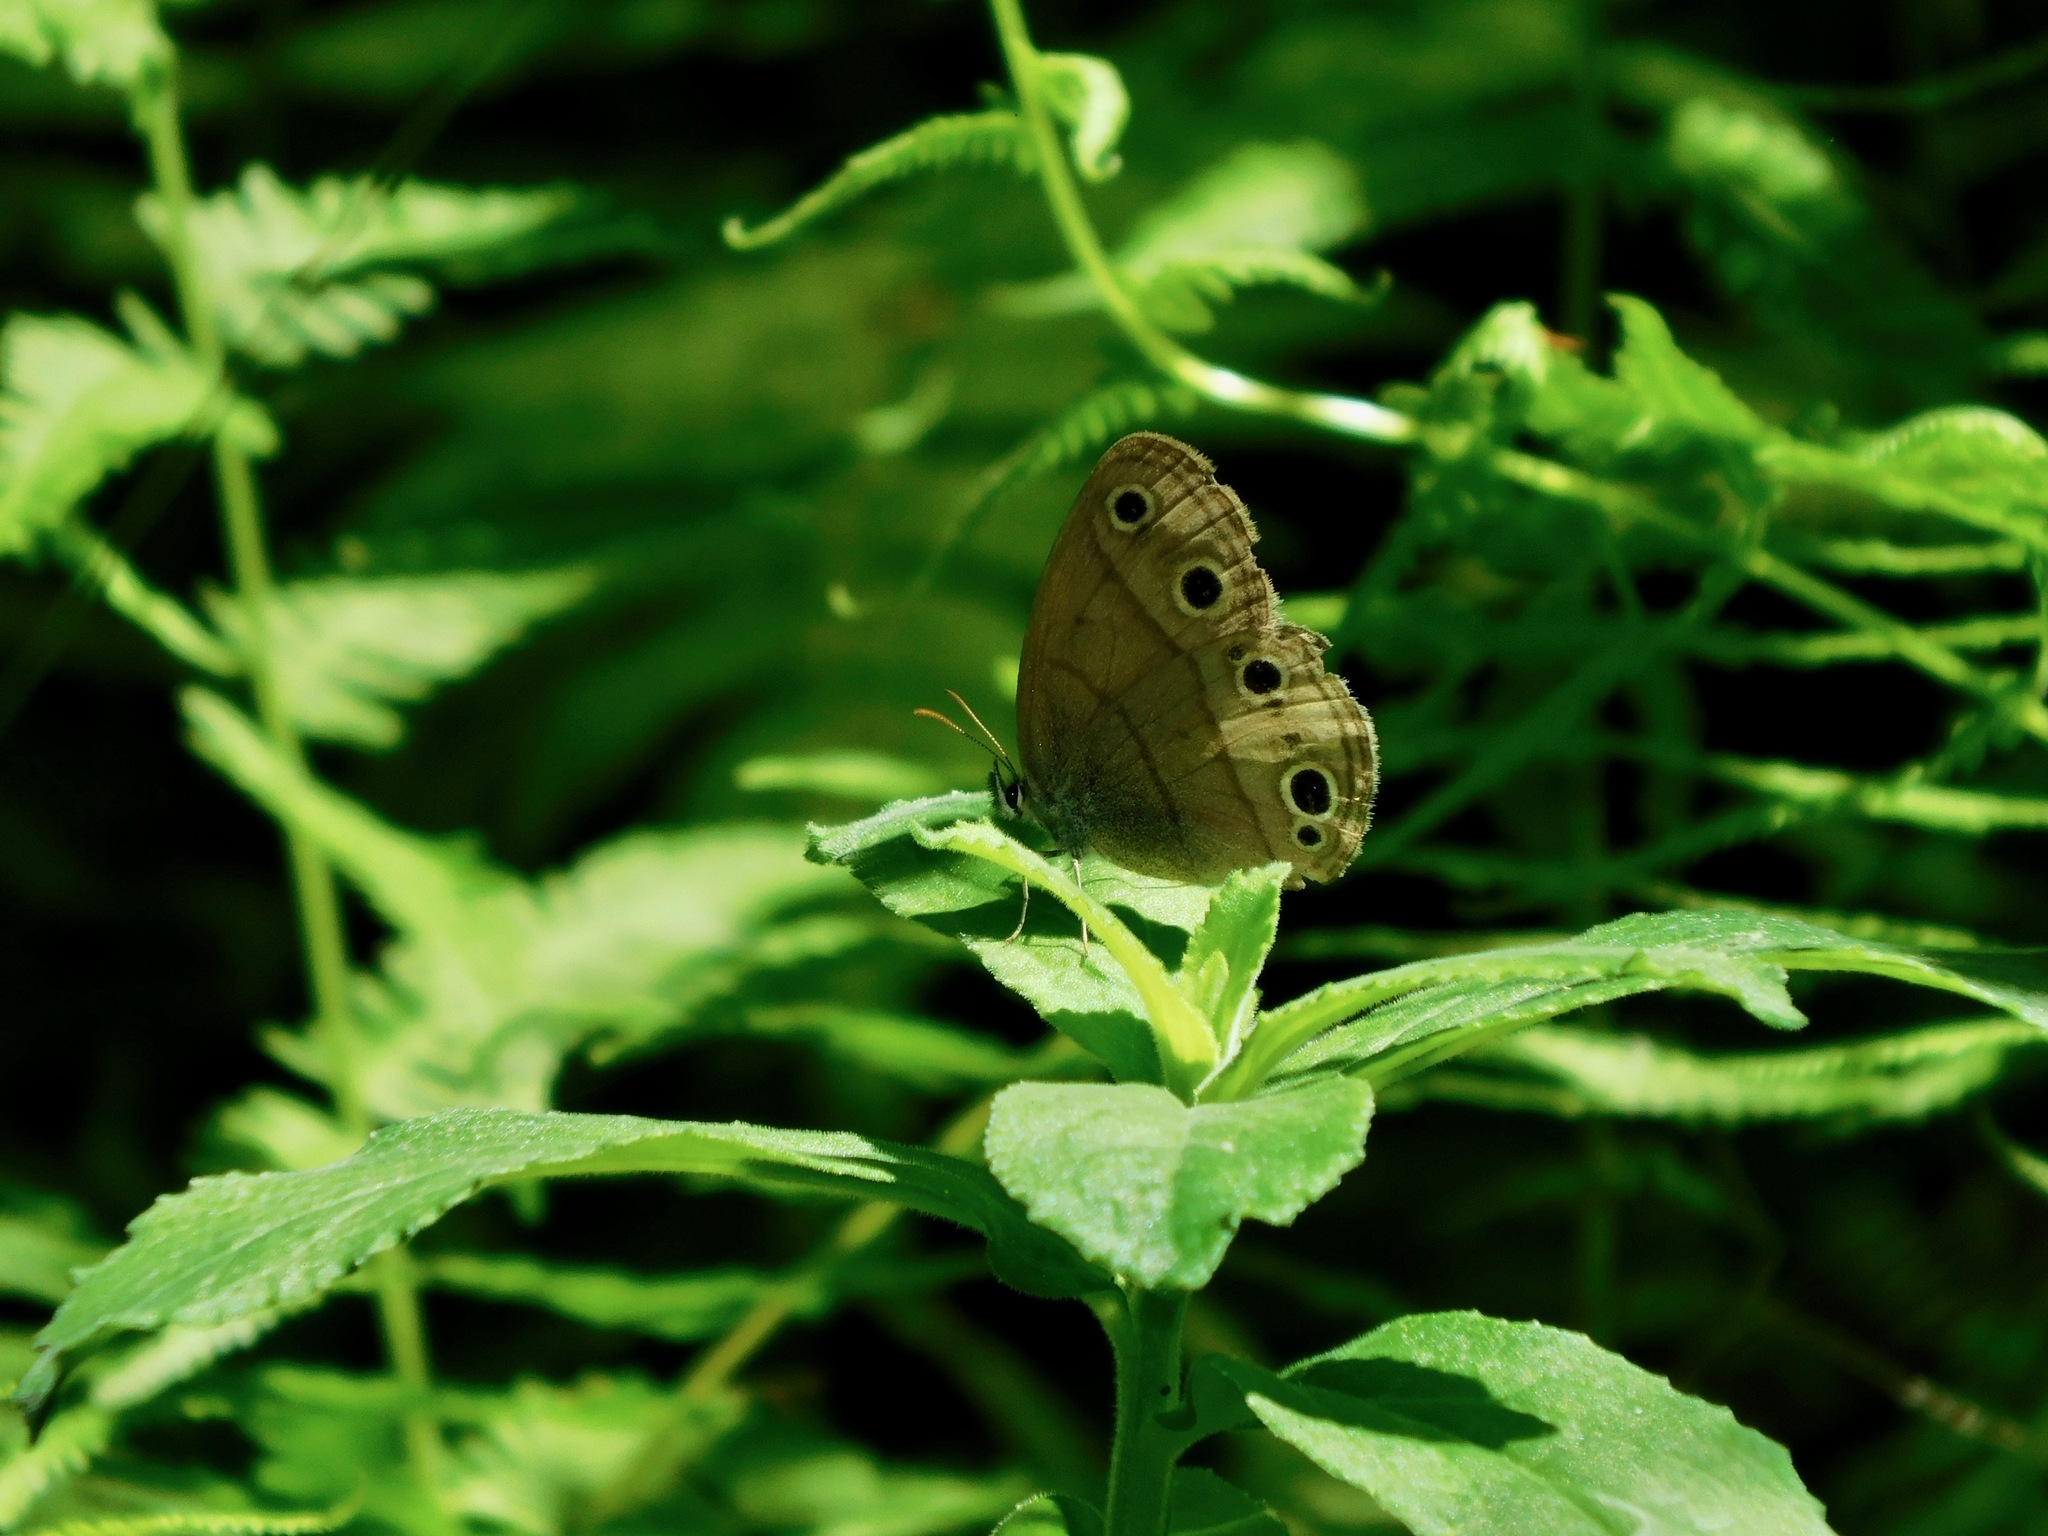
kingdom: Animalia
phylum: Arthropoda
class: Insecta
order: Lepidoptera
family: Nymphalidae
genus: Euptychia
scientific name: Euptychia cymela
